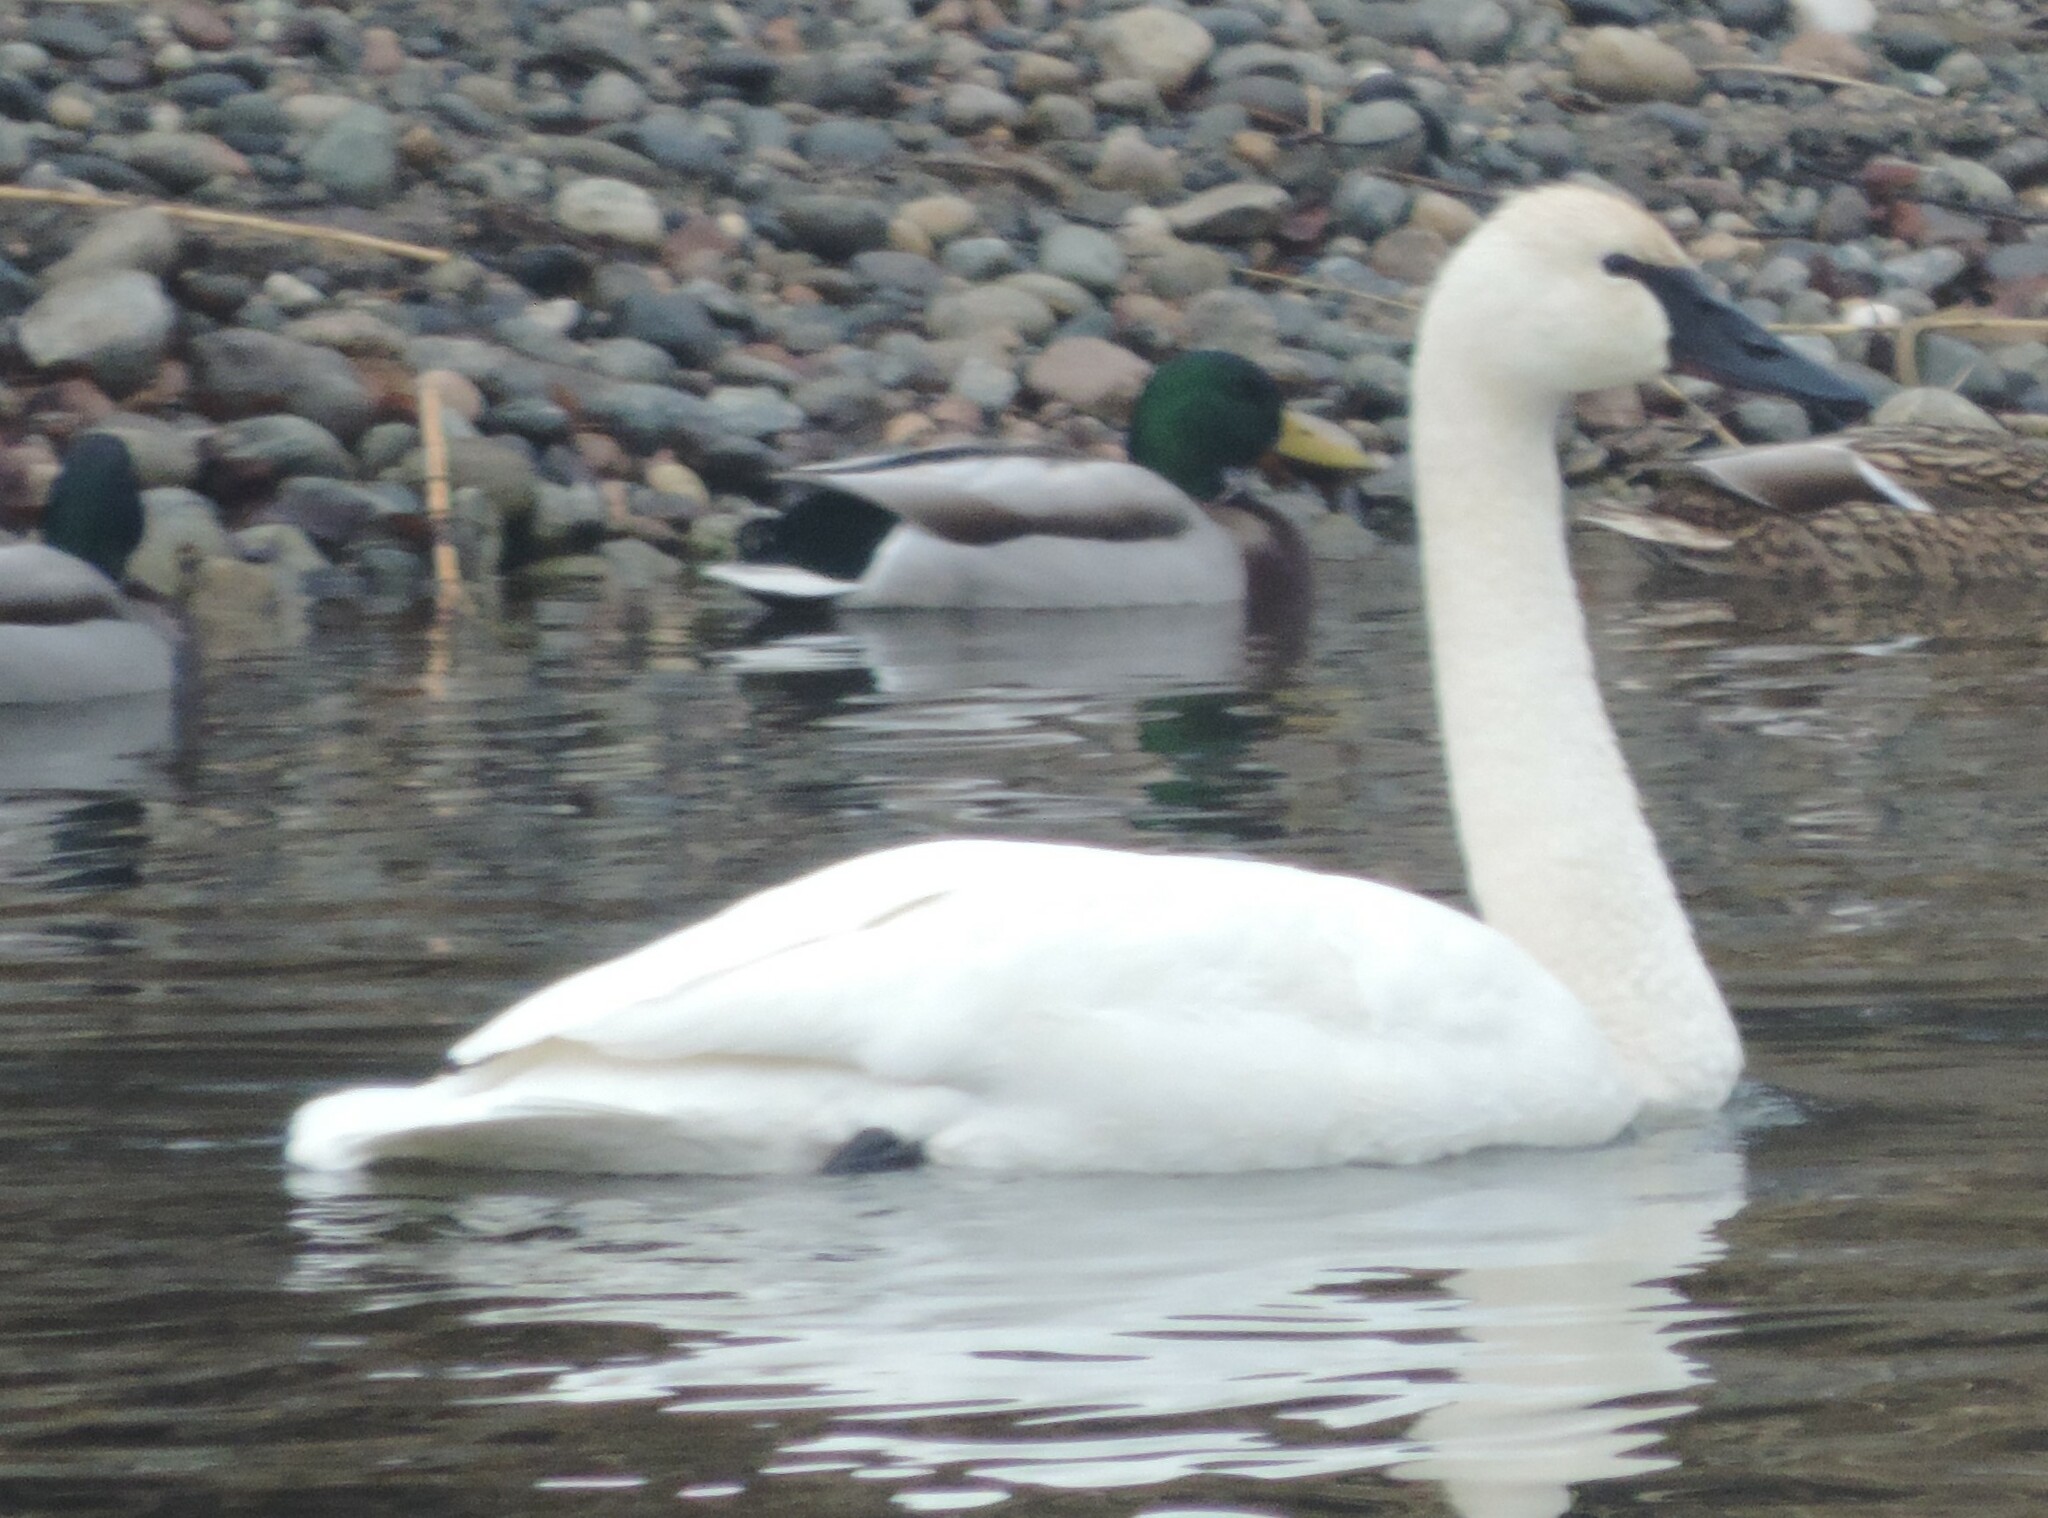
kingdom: Animalia
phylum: Chordata
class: Aves
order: Anseriformes
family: Anatidae
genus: Cygnus
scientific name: Cygnus buccinator
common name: Trumpeter swan
